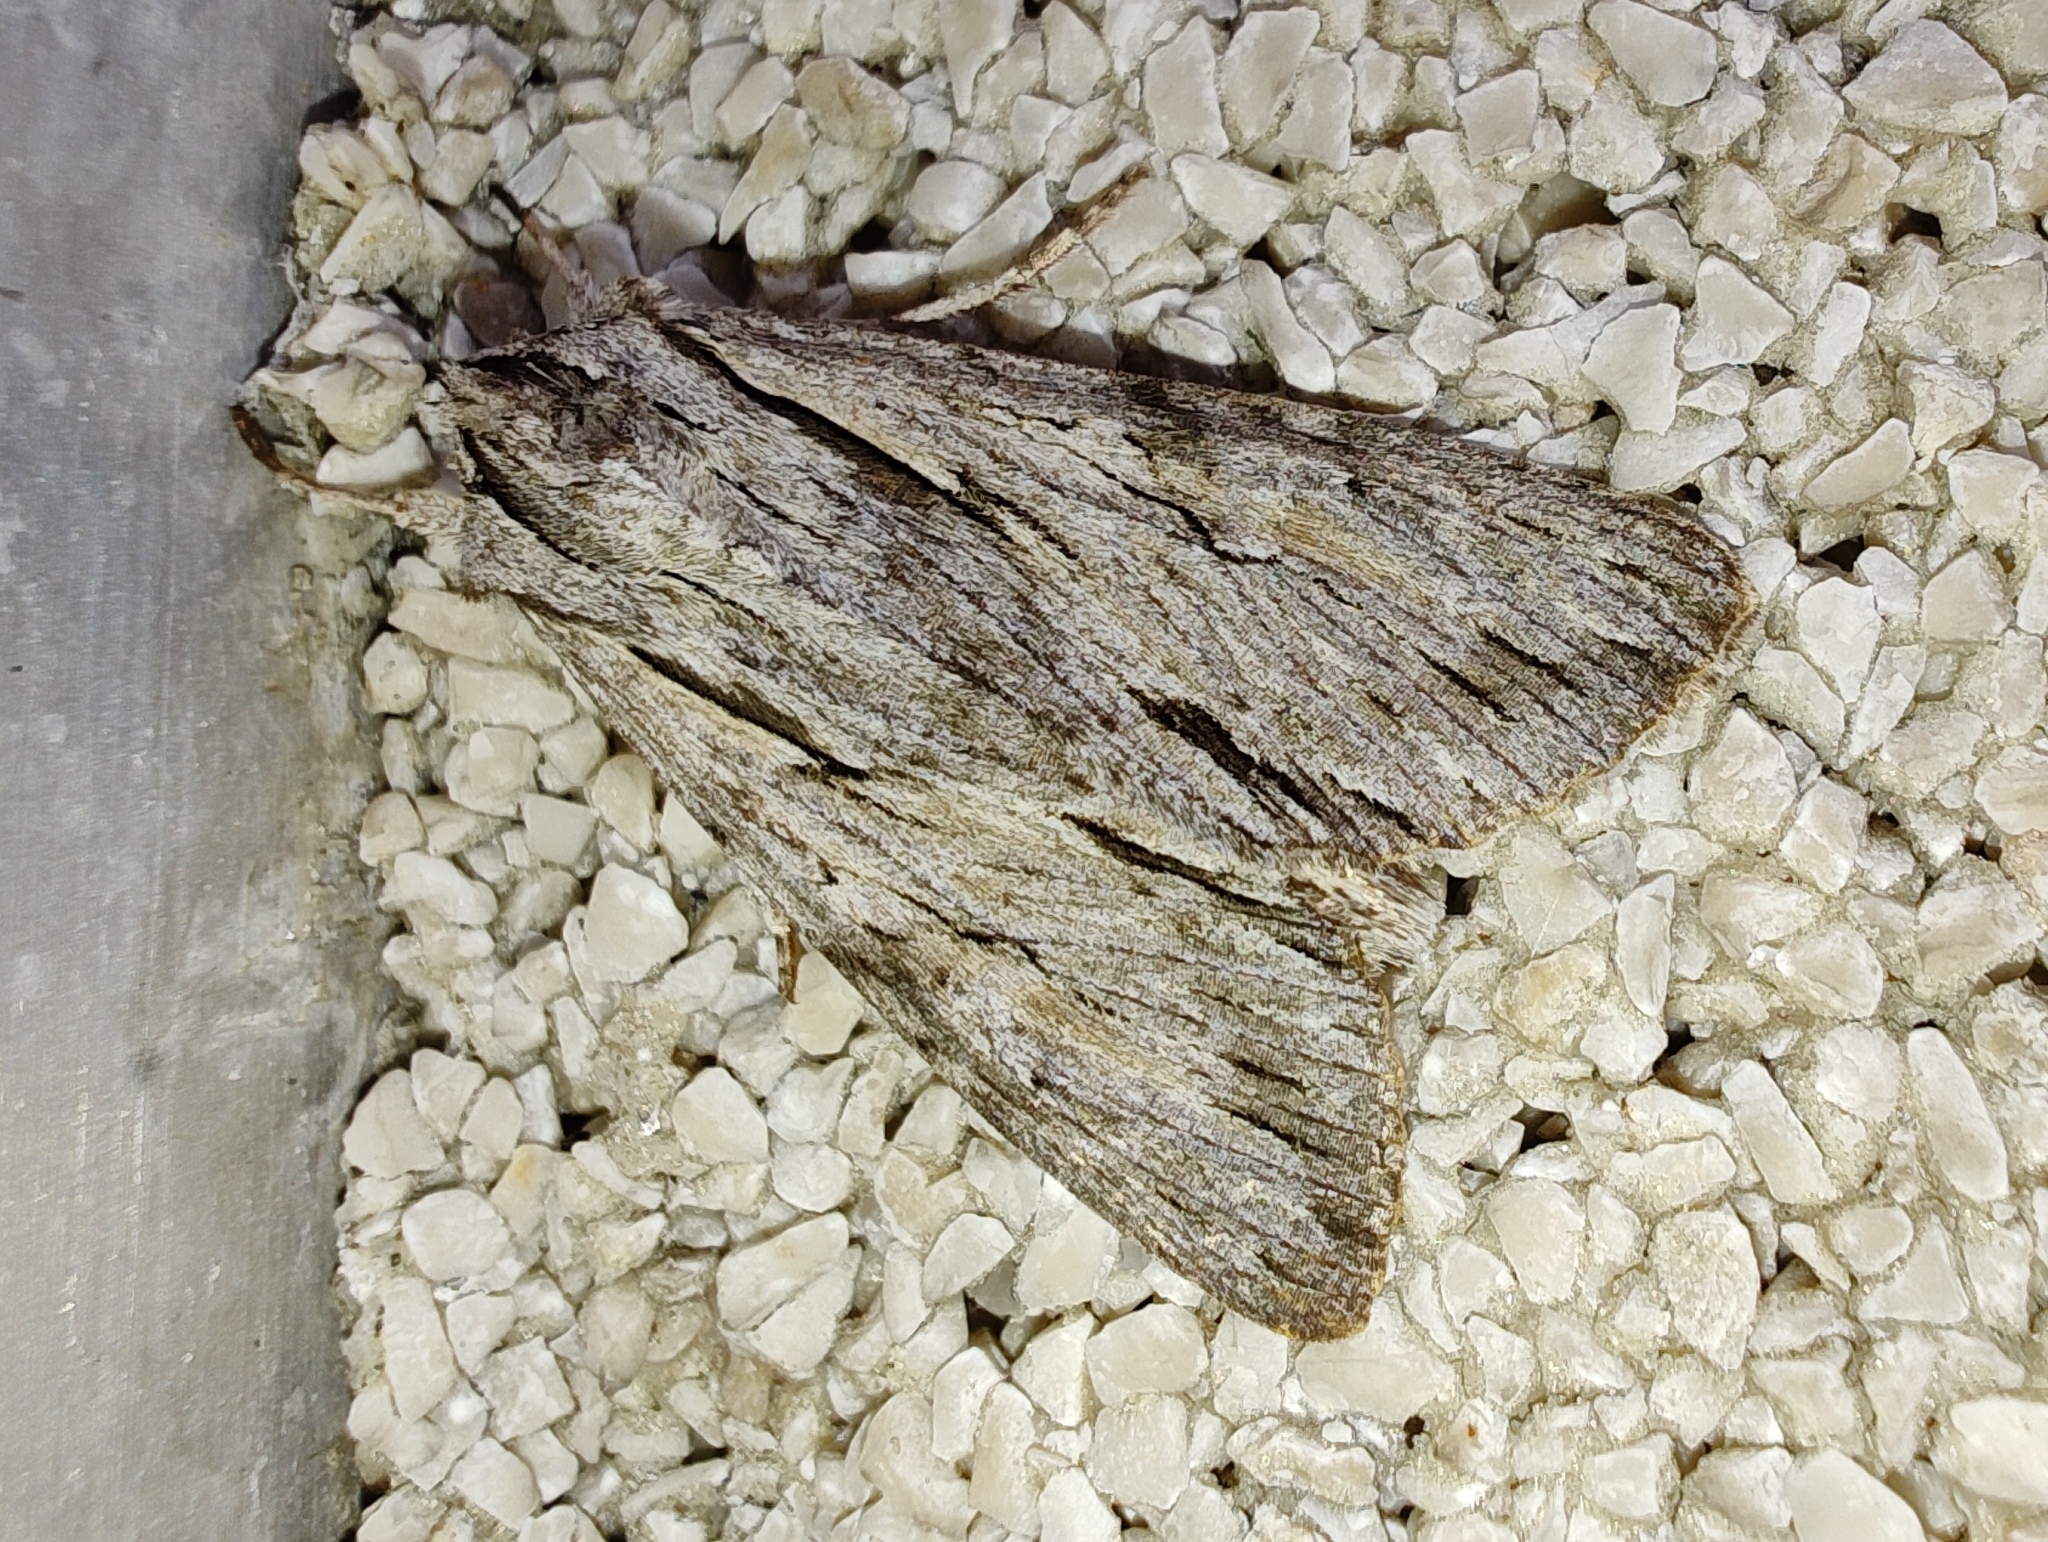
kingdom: Animalia
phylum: Arthropoda
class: Insecta
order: Lepidoptera
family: Noctuidae
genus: Auchmis
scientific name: Auchmis detersa
